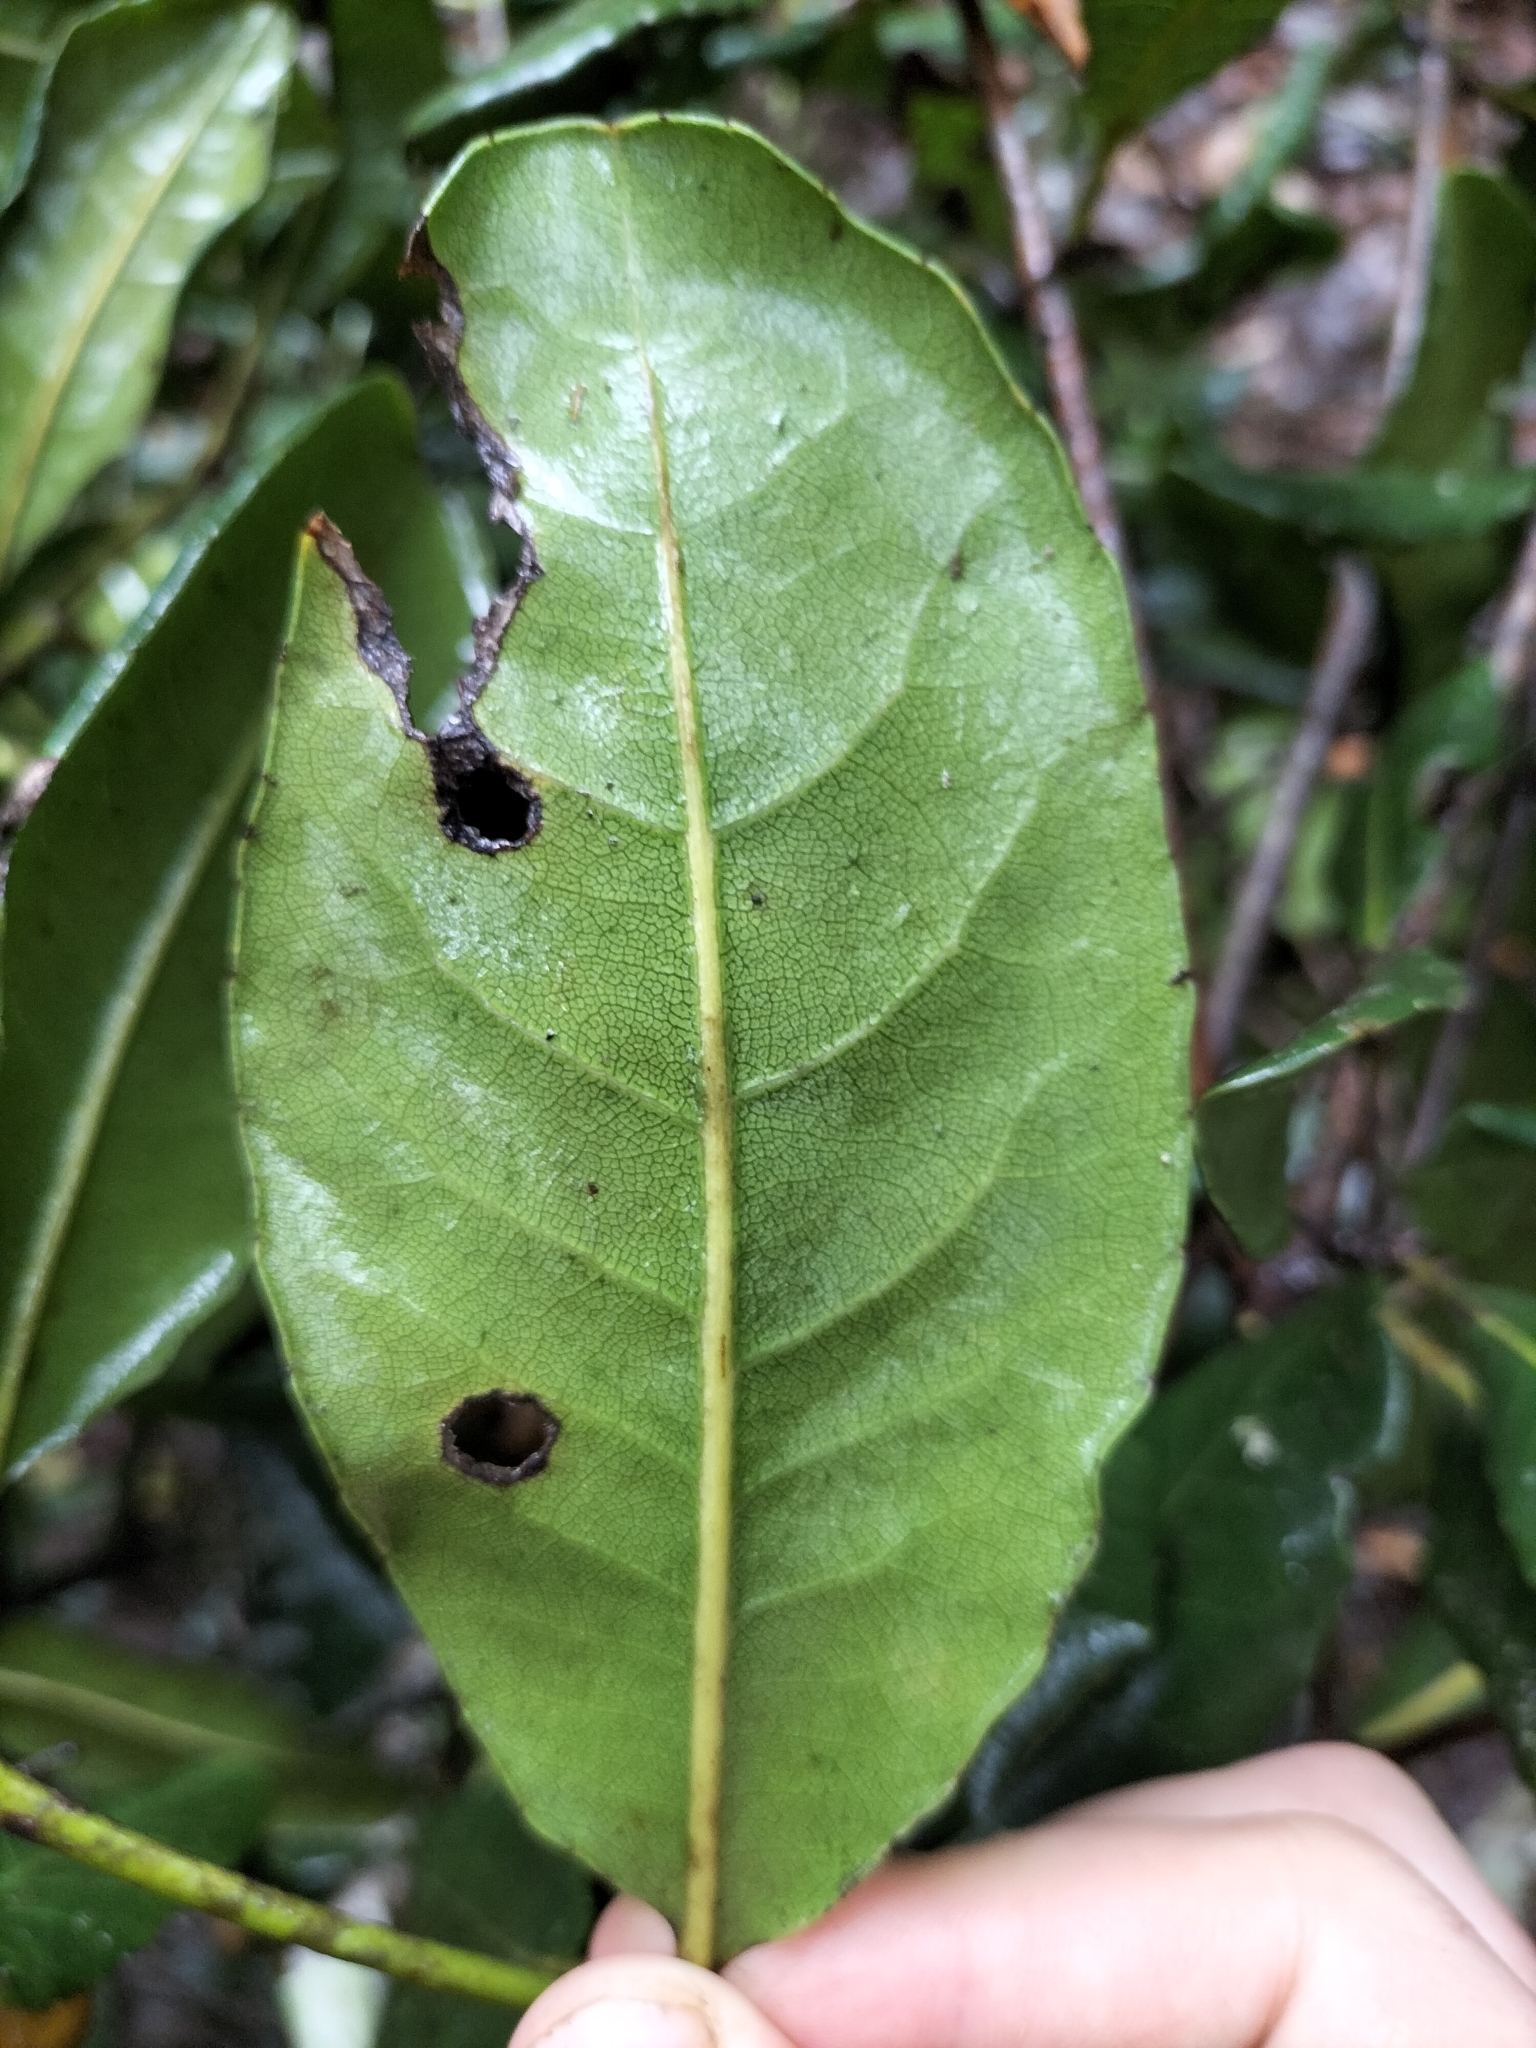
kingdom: Plantae
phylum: Tracheophyta
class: Magnoliopsida
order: Oxalidales
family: Cunoniaceae
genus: Schizomeria
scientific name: Schizomeria whitei
